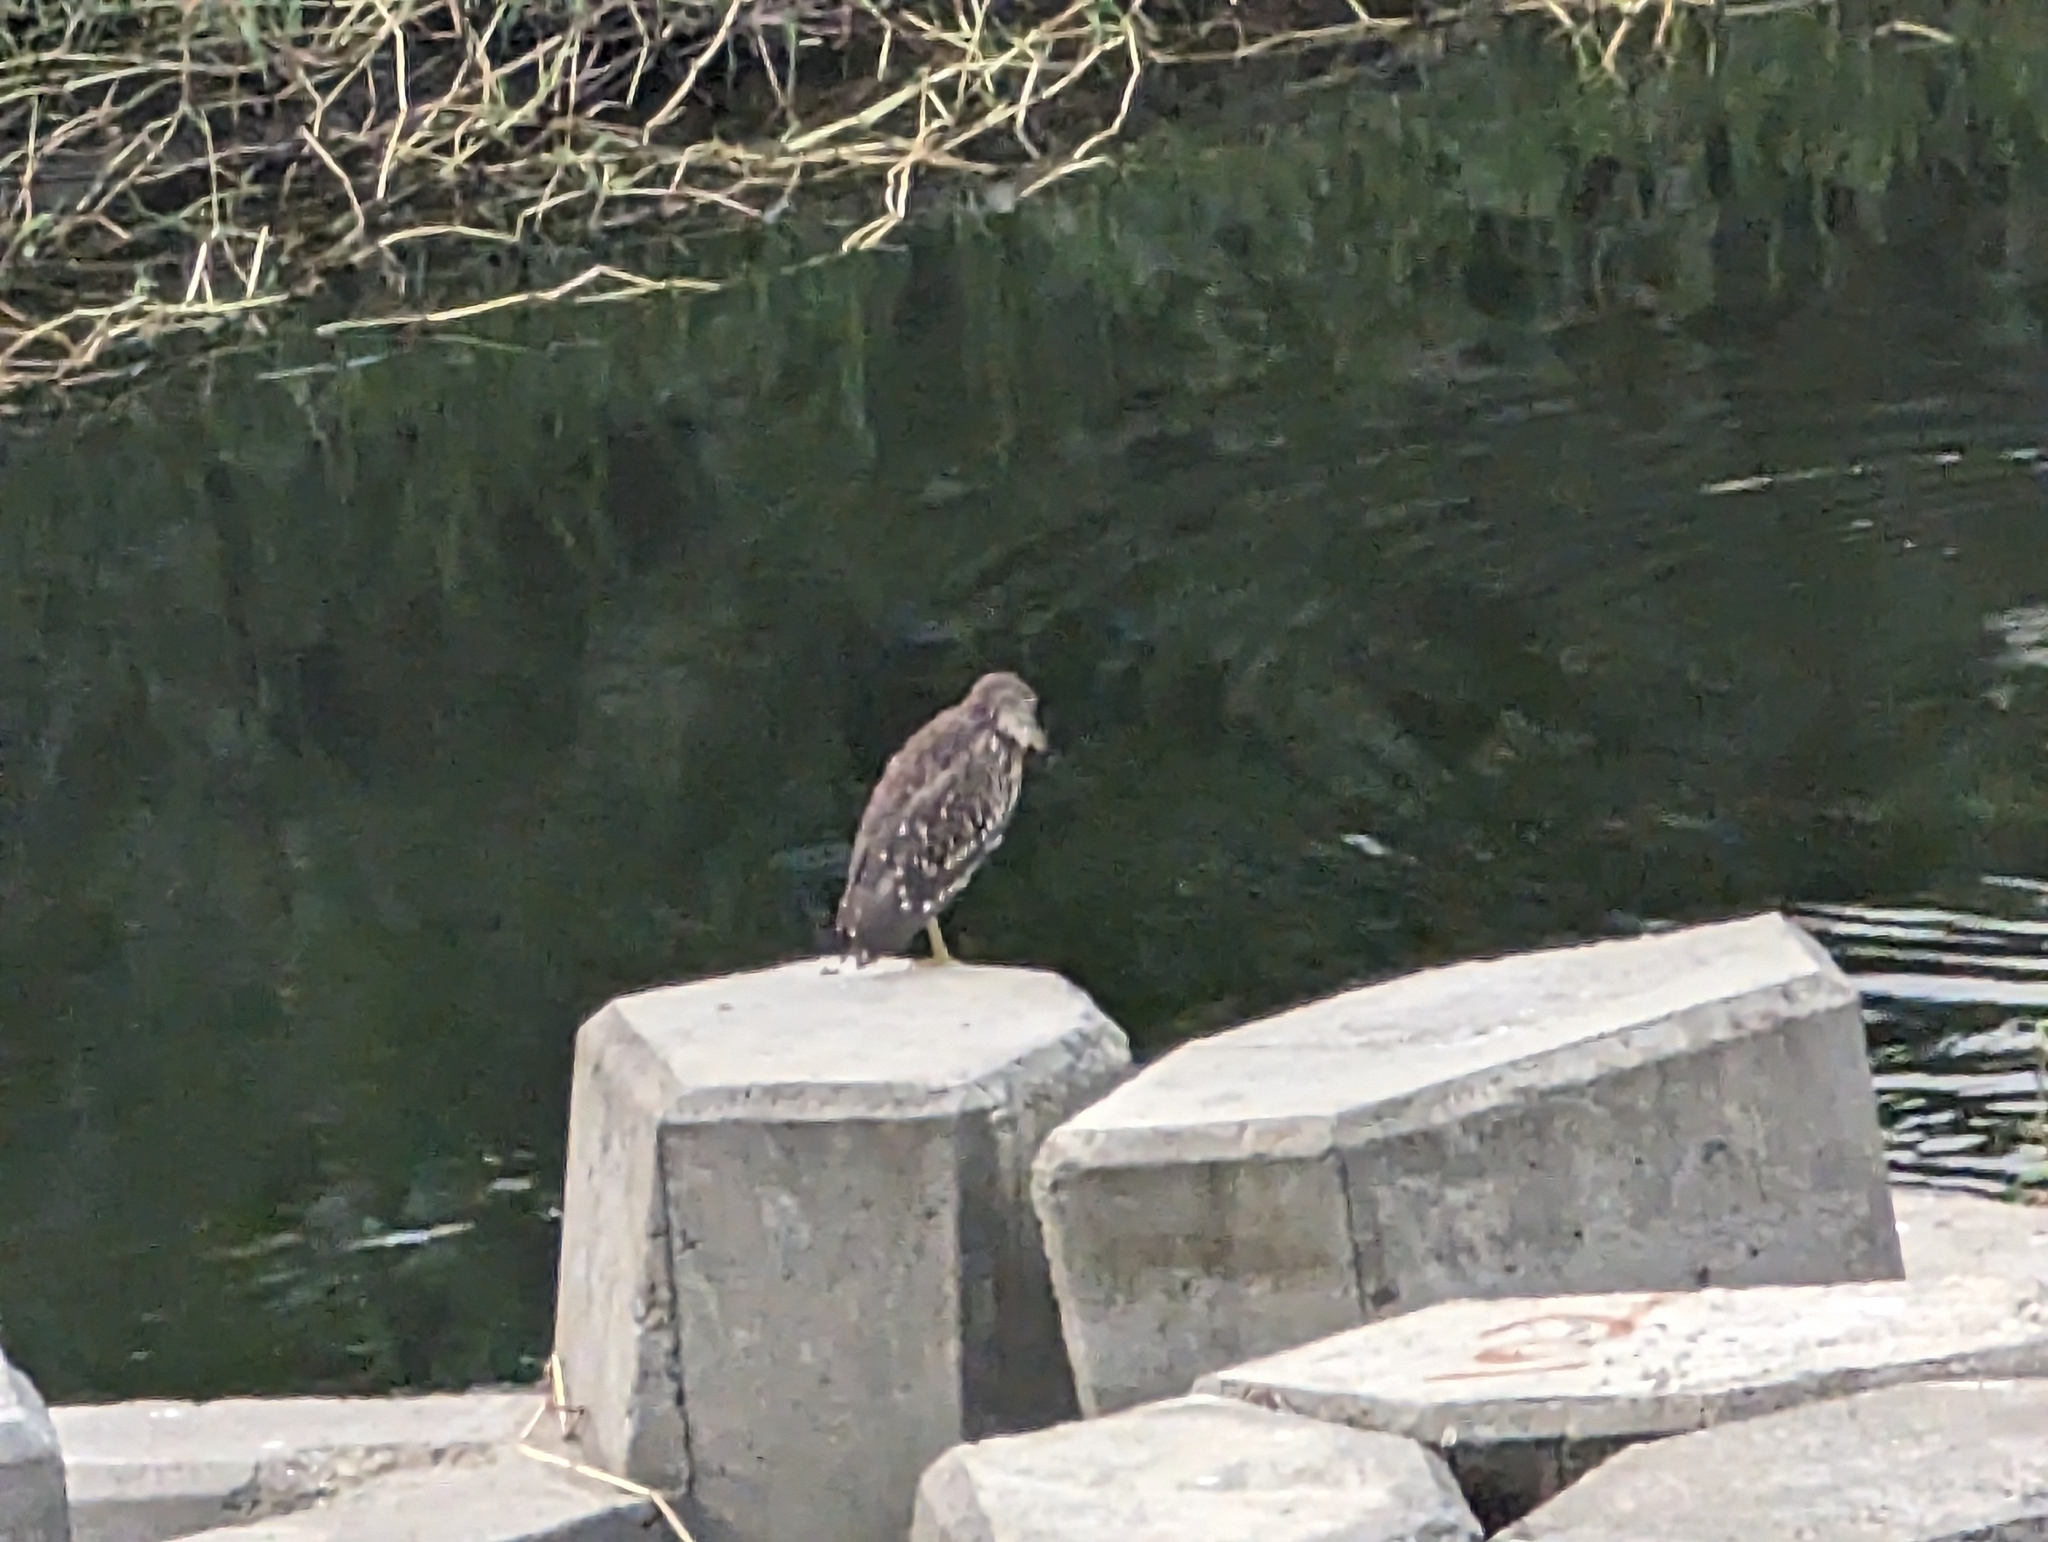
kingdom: Animalia
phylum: Chordata
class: Aves
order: Pelecaniformes
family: Ardeidae
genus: Nycticorax
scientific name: Nycticorax nycticorax
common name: Black-crowned night heron
